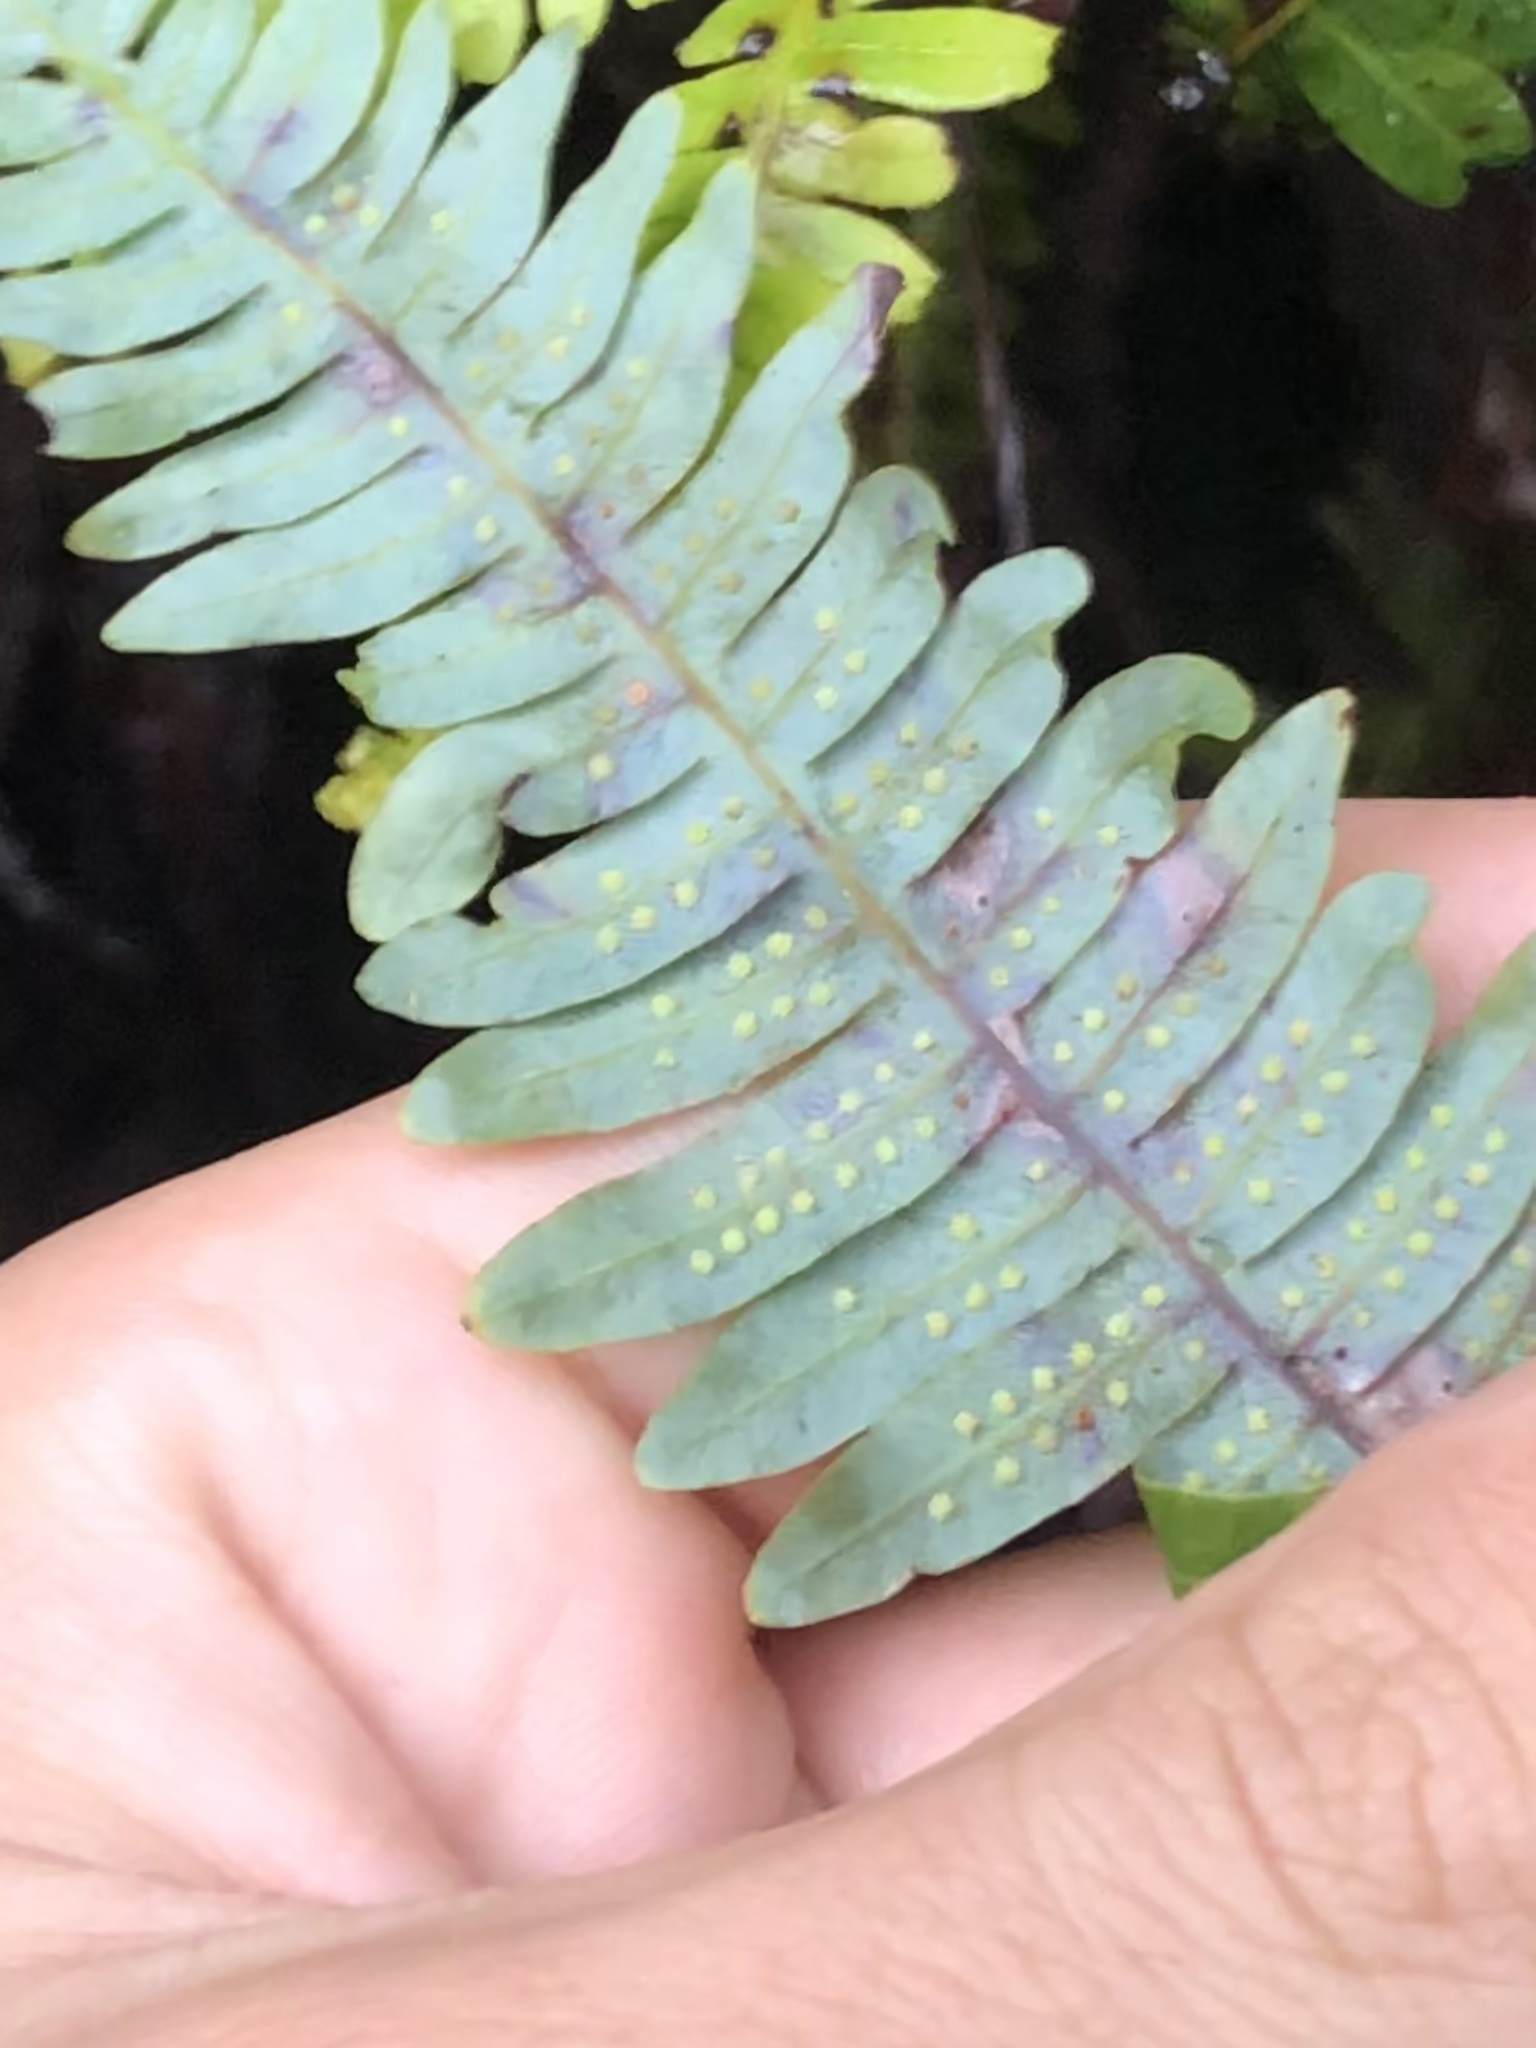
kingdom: Plantae
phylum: Tracheophyta
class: Polypodiopsida
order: Gleicheniales
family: Gleicheniaceae
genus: Gleichenella
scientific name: Gleichenella pectinata
